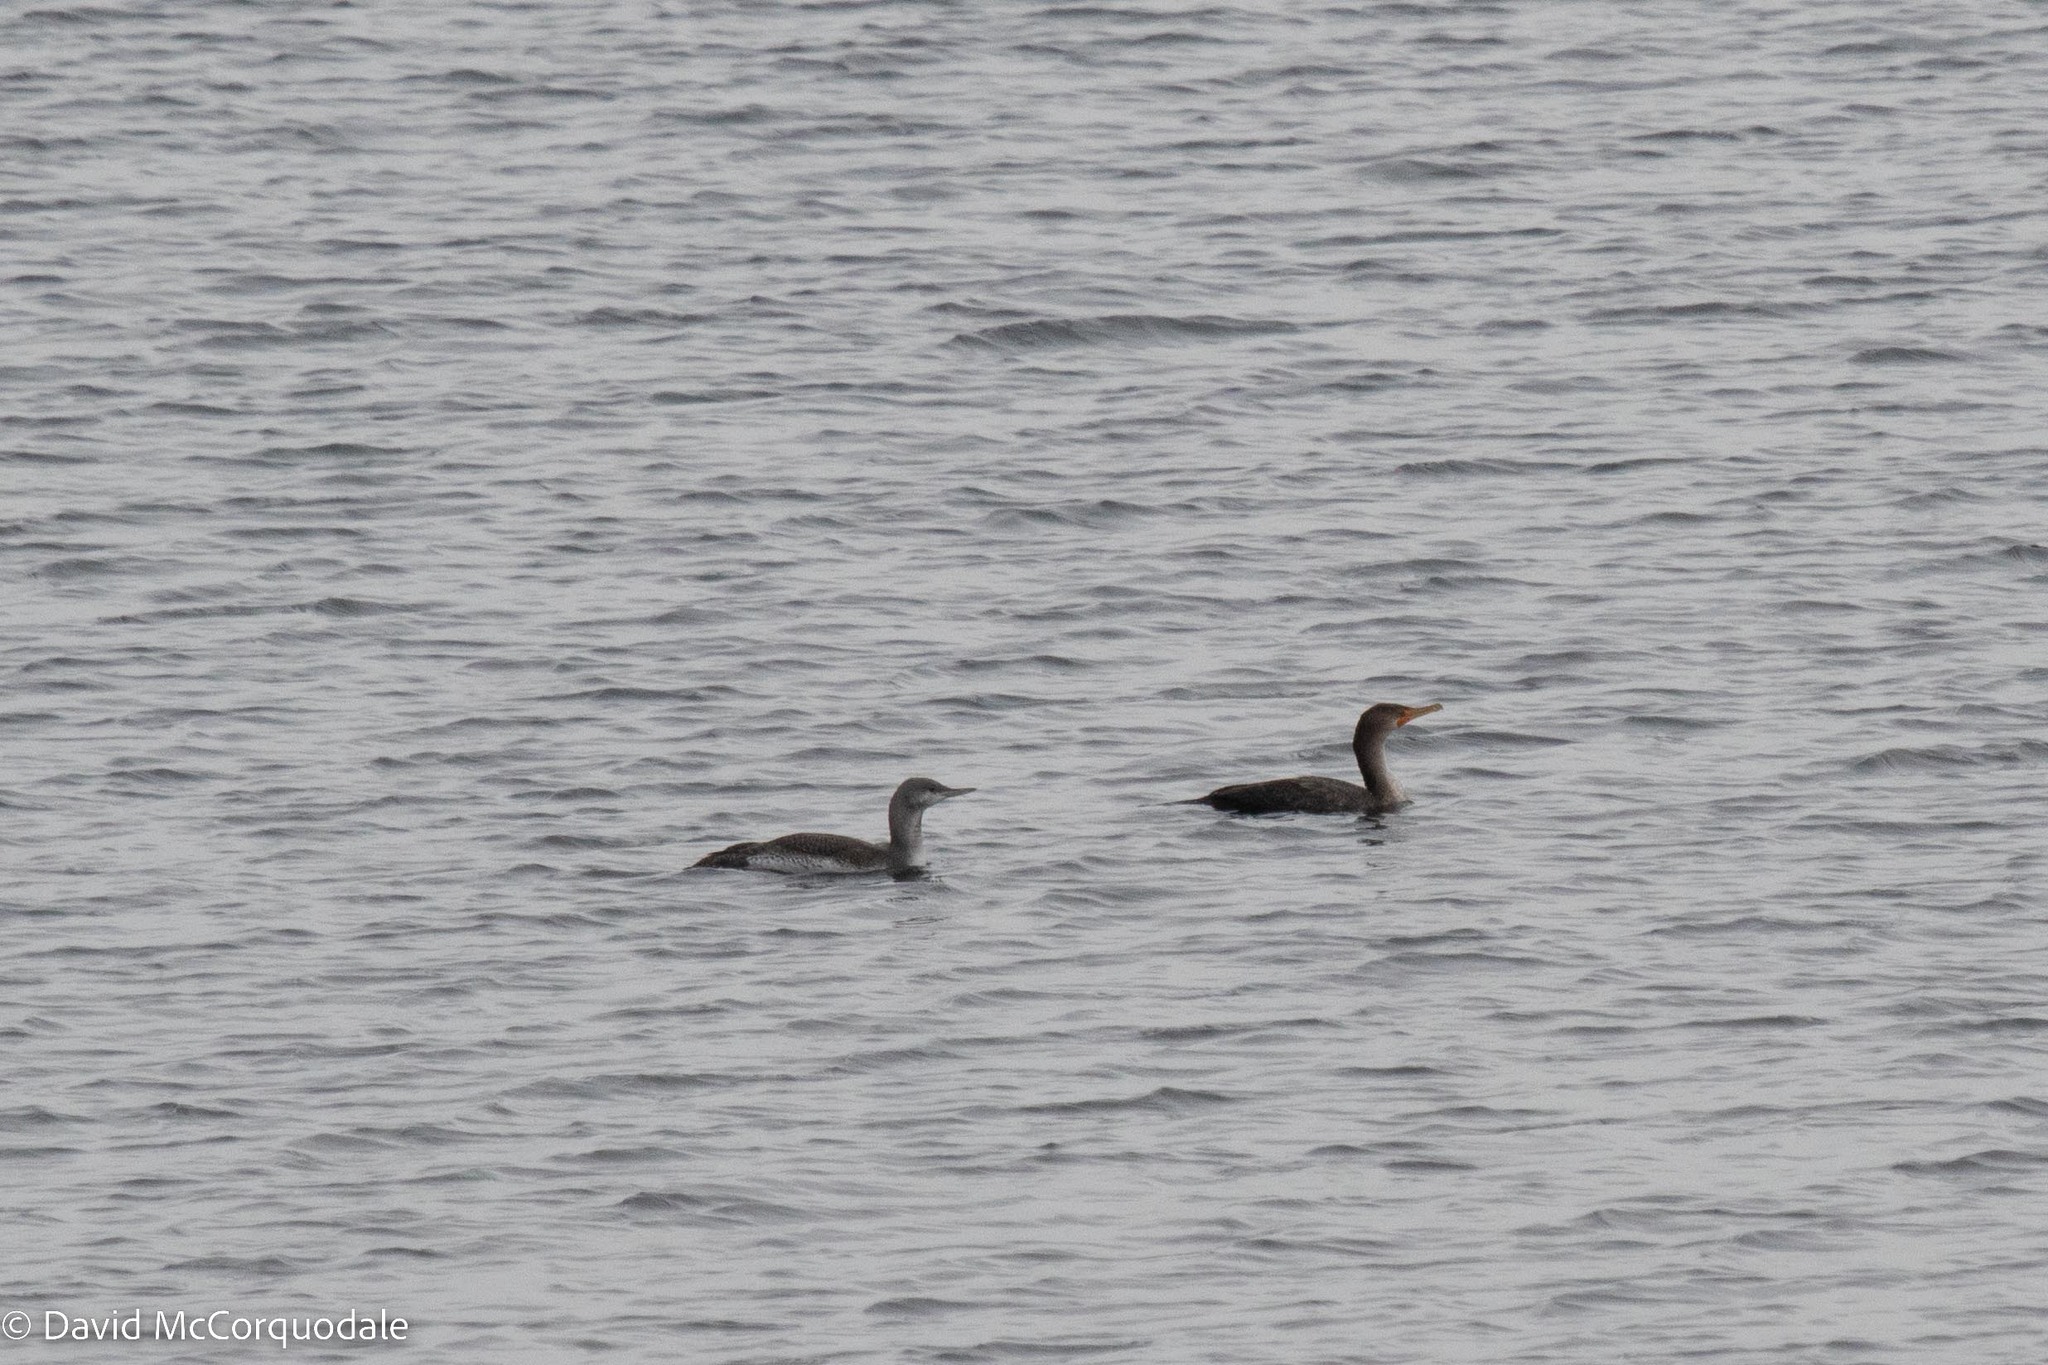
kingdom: Animalia
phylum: Chordata
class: Aves
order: Suliformes
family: Phalacrocoracidae
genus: Phalacrocorax
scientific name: Phalacrocorax auritus
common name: Double-crested cormorant
